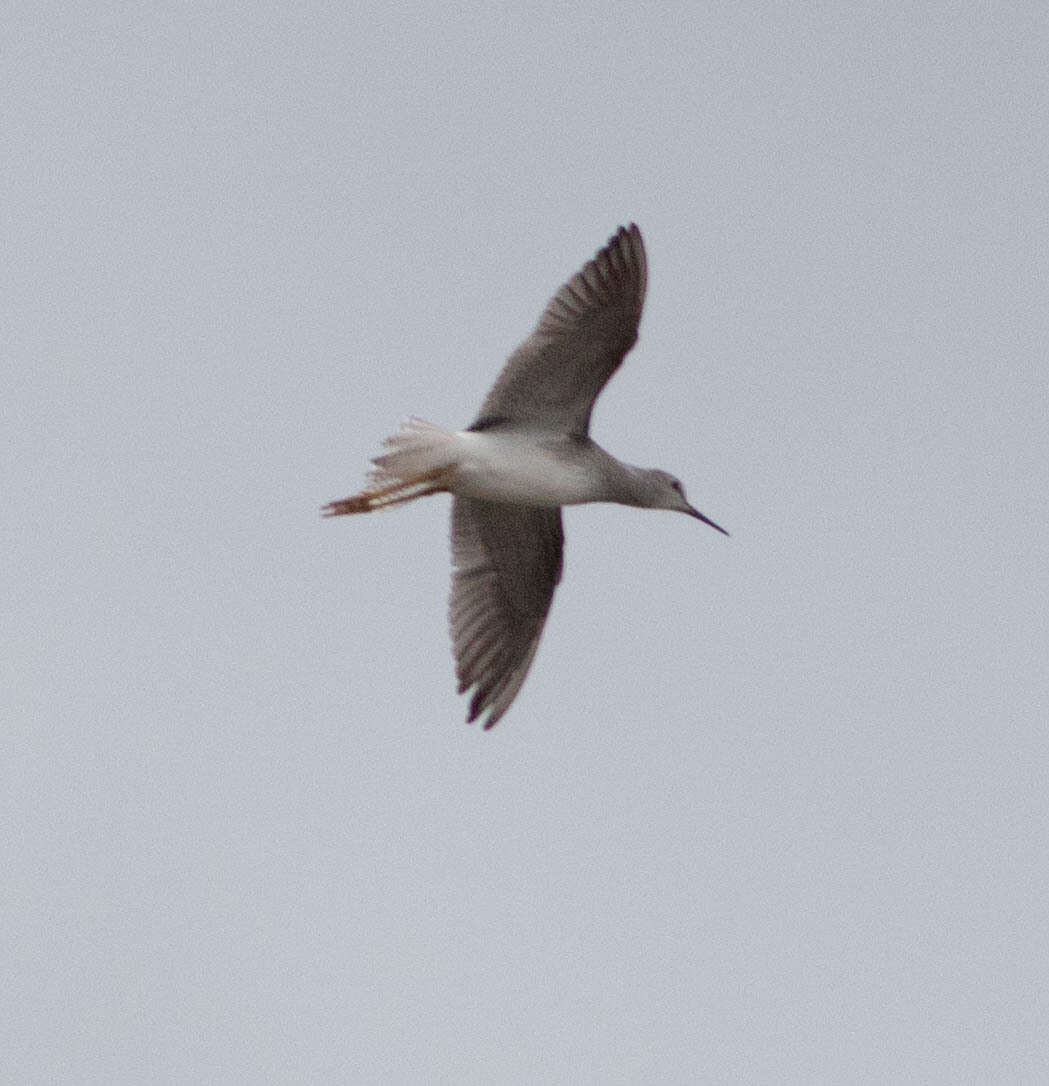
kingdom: Animalia
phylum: Chordata
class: Aves
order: Charadriiformes
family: Scolopacidae
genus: Tringa
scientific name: Tringa flavipes
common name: Lesser yellowlegs
